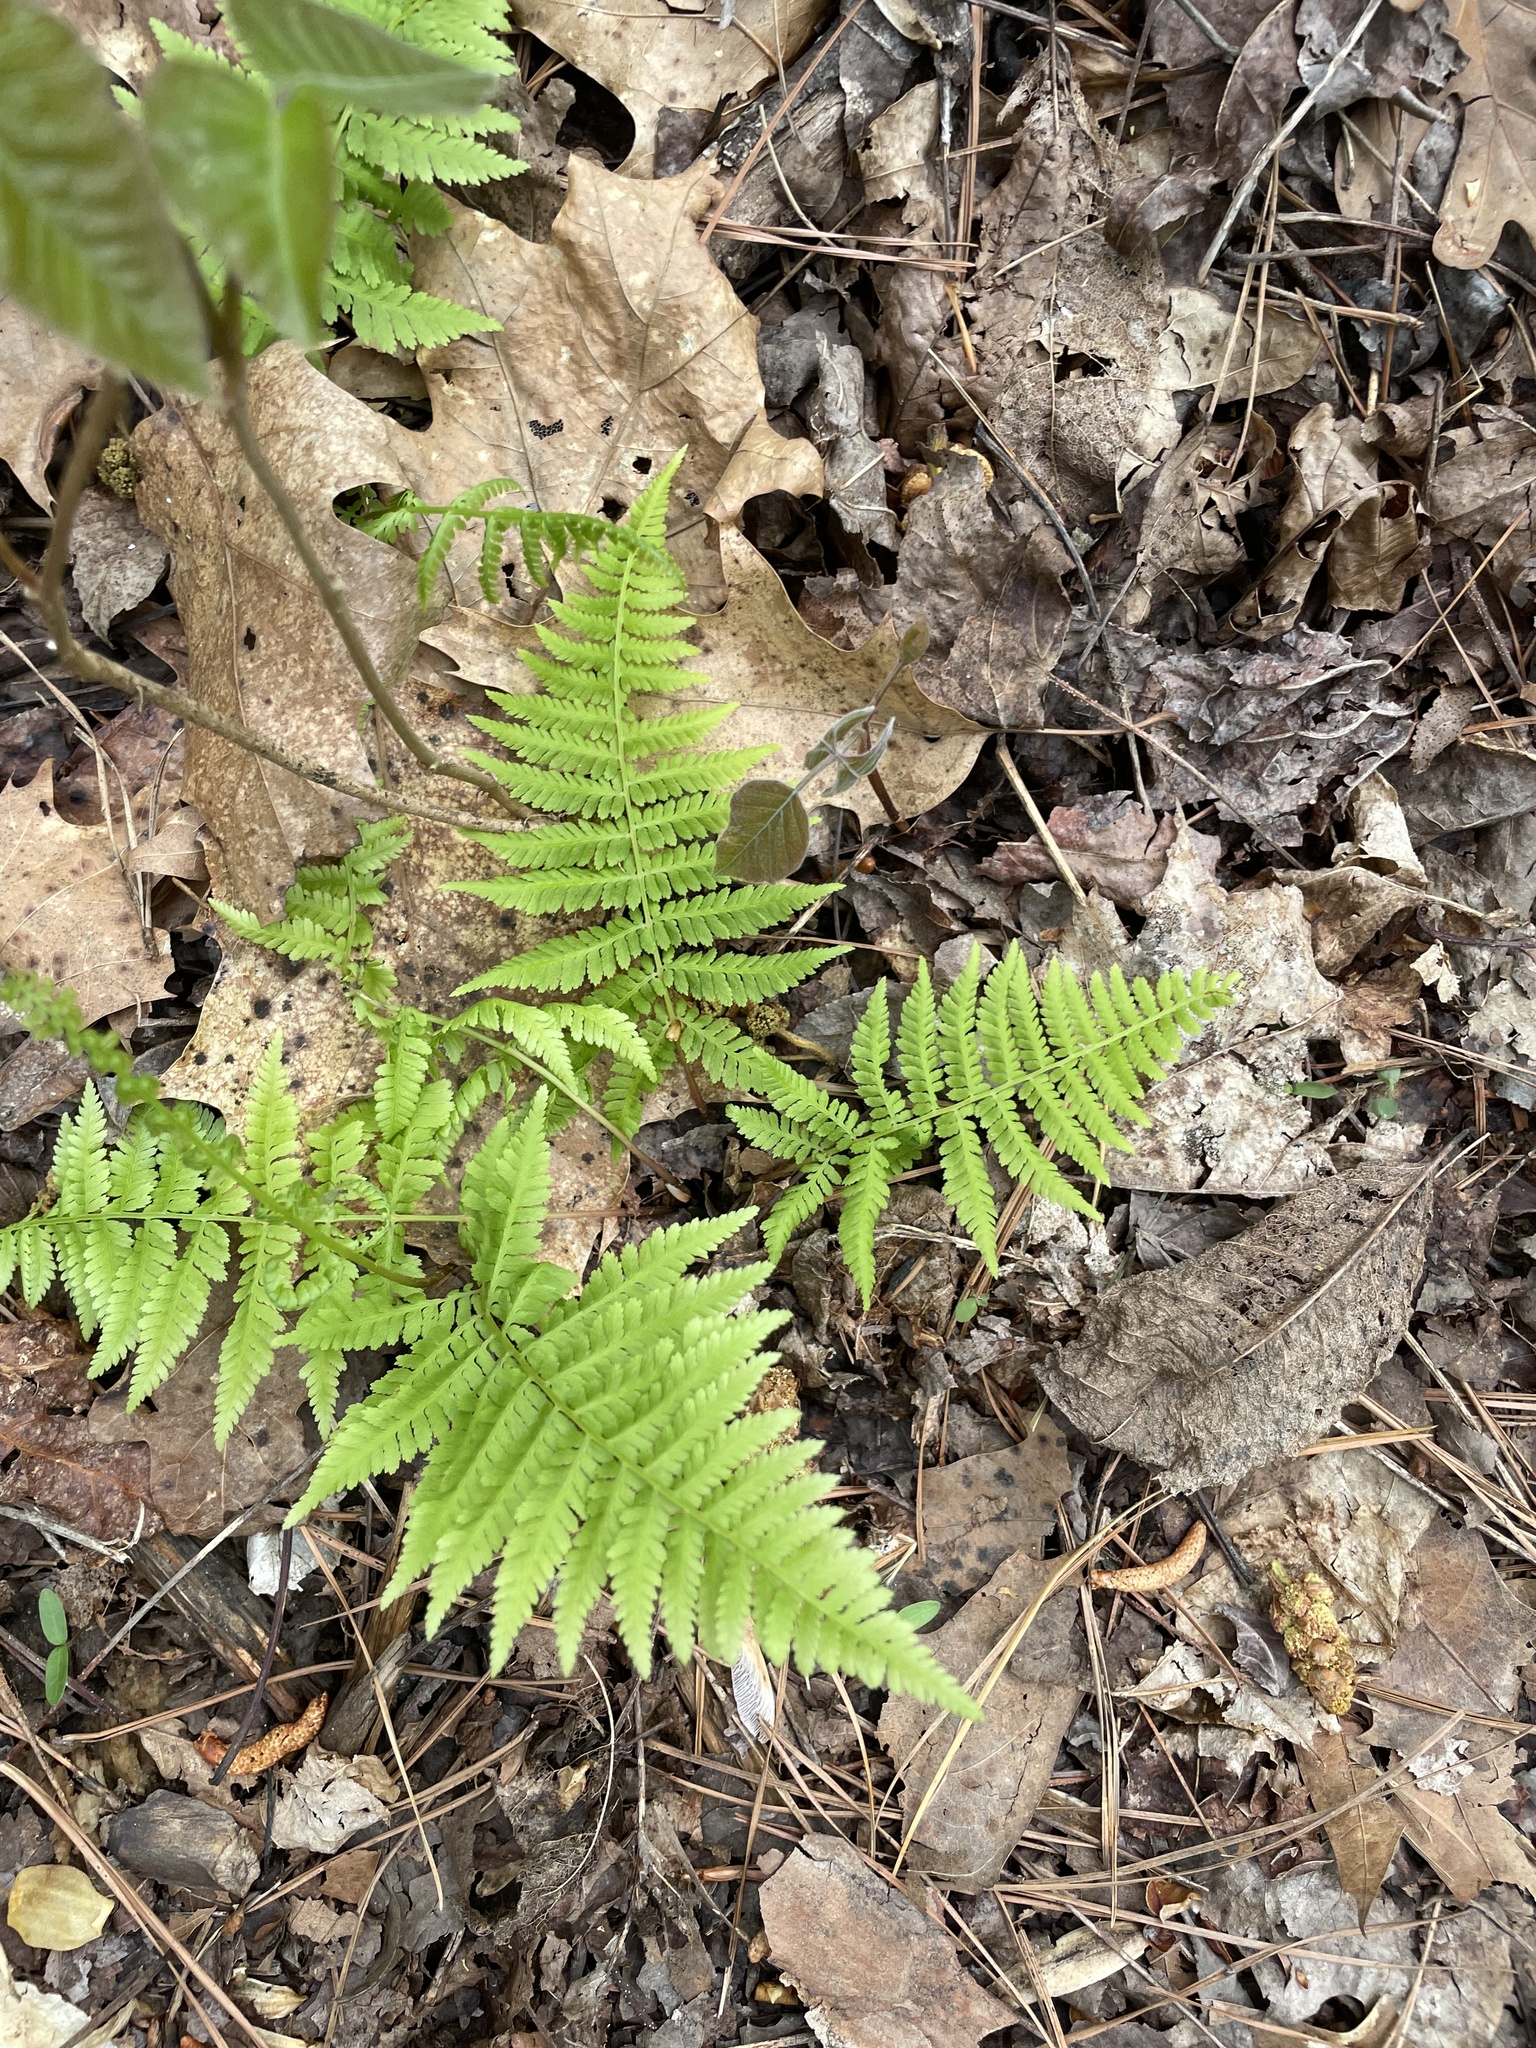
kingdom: Plantae
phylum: Tracheophyta
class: Polypodiopsida
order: Polypodiales
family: Athyriaceae
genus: Athyrium
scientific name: Athyrium asplenioides
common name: Southern lady fern
